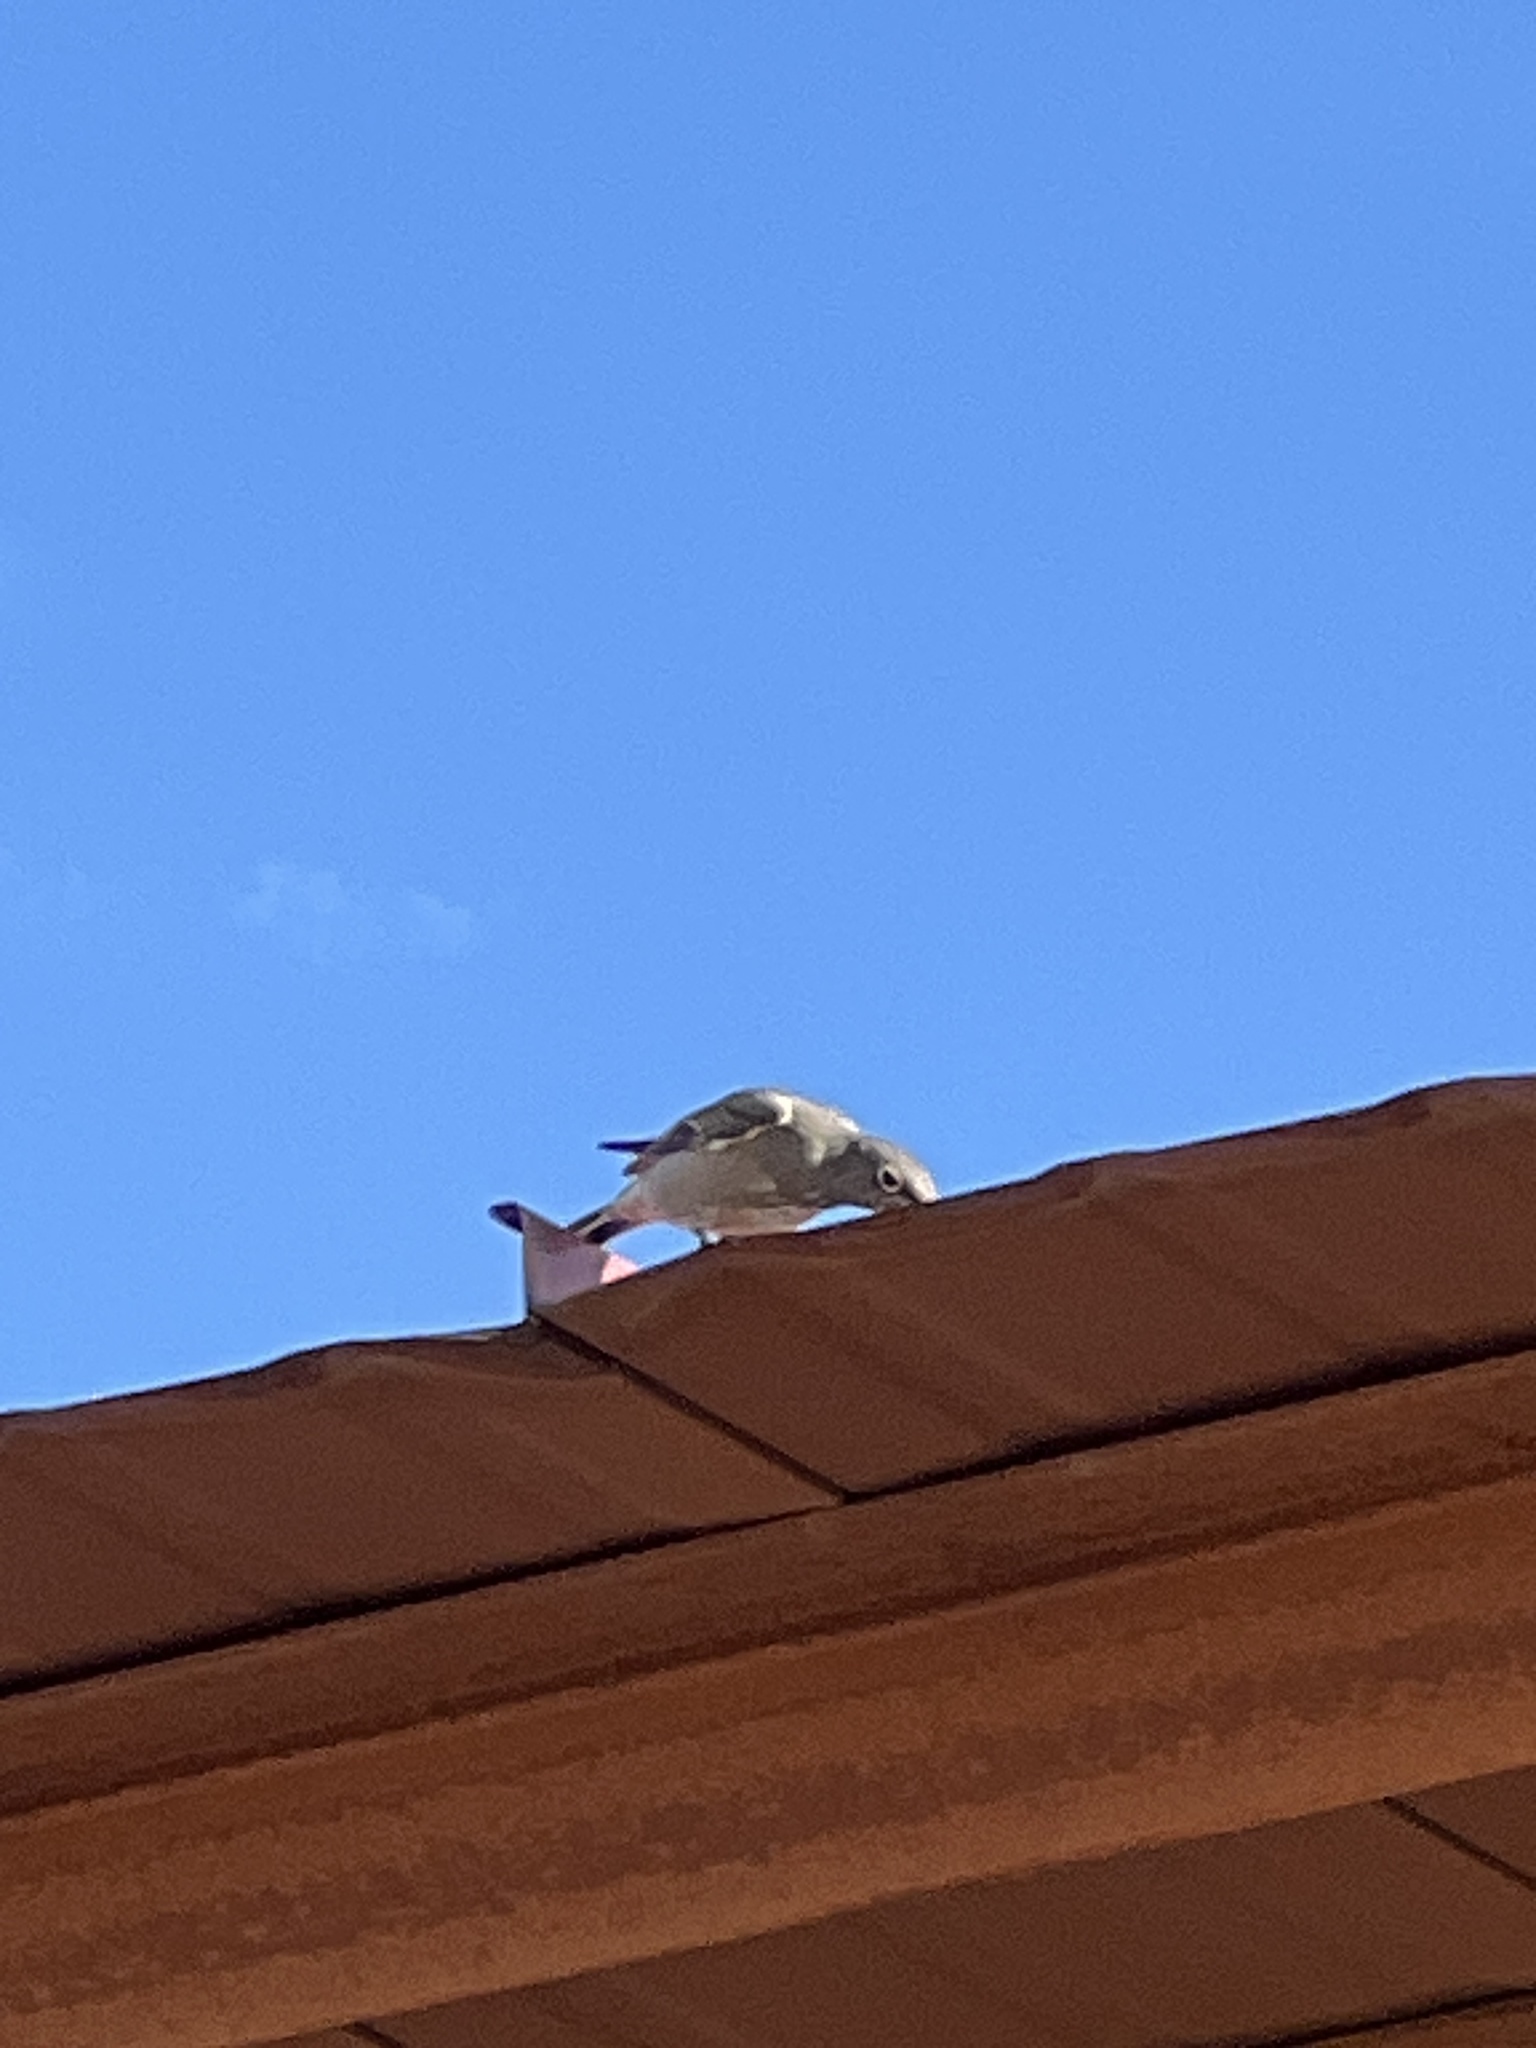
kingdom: Animalia
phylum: Chordata
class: Aves
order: Passeriformes
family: Turdidae
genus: Myadestes
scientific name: Myadestes townsendi
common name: Townsend's solitaire
